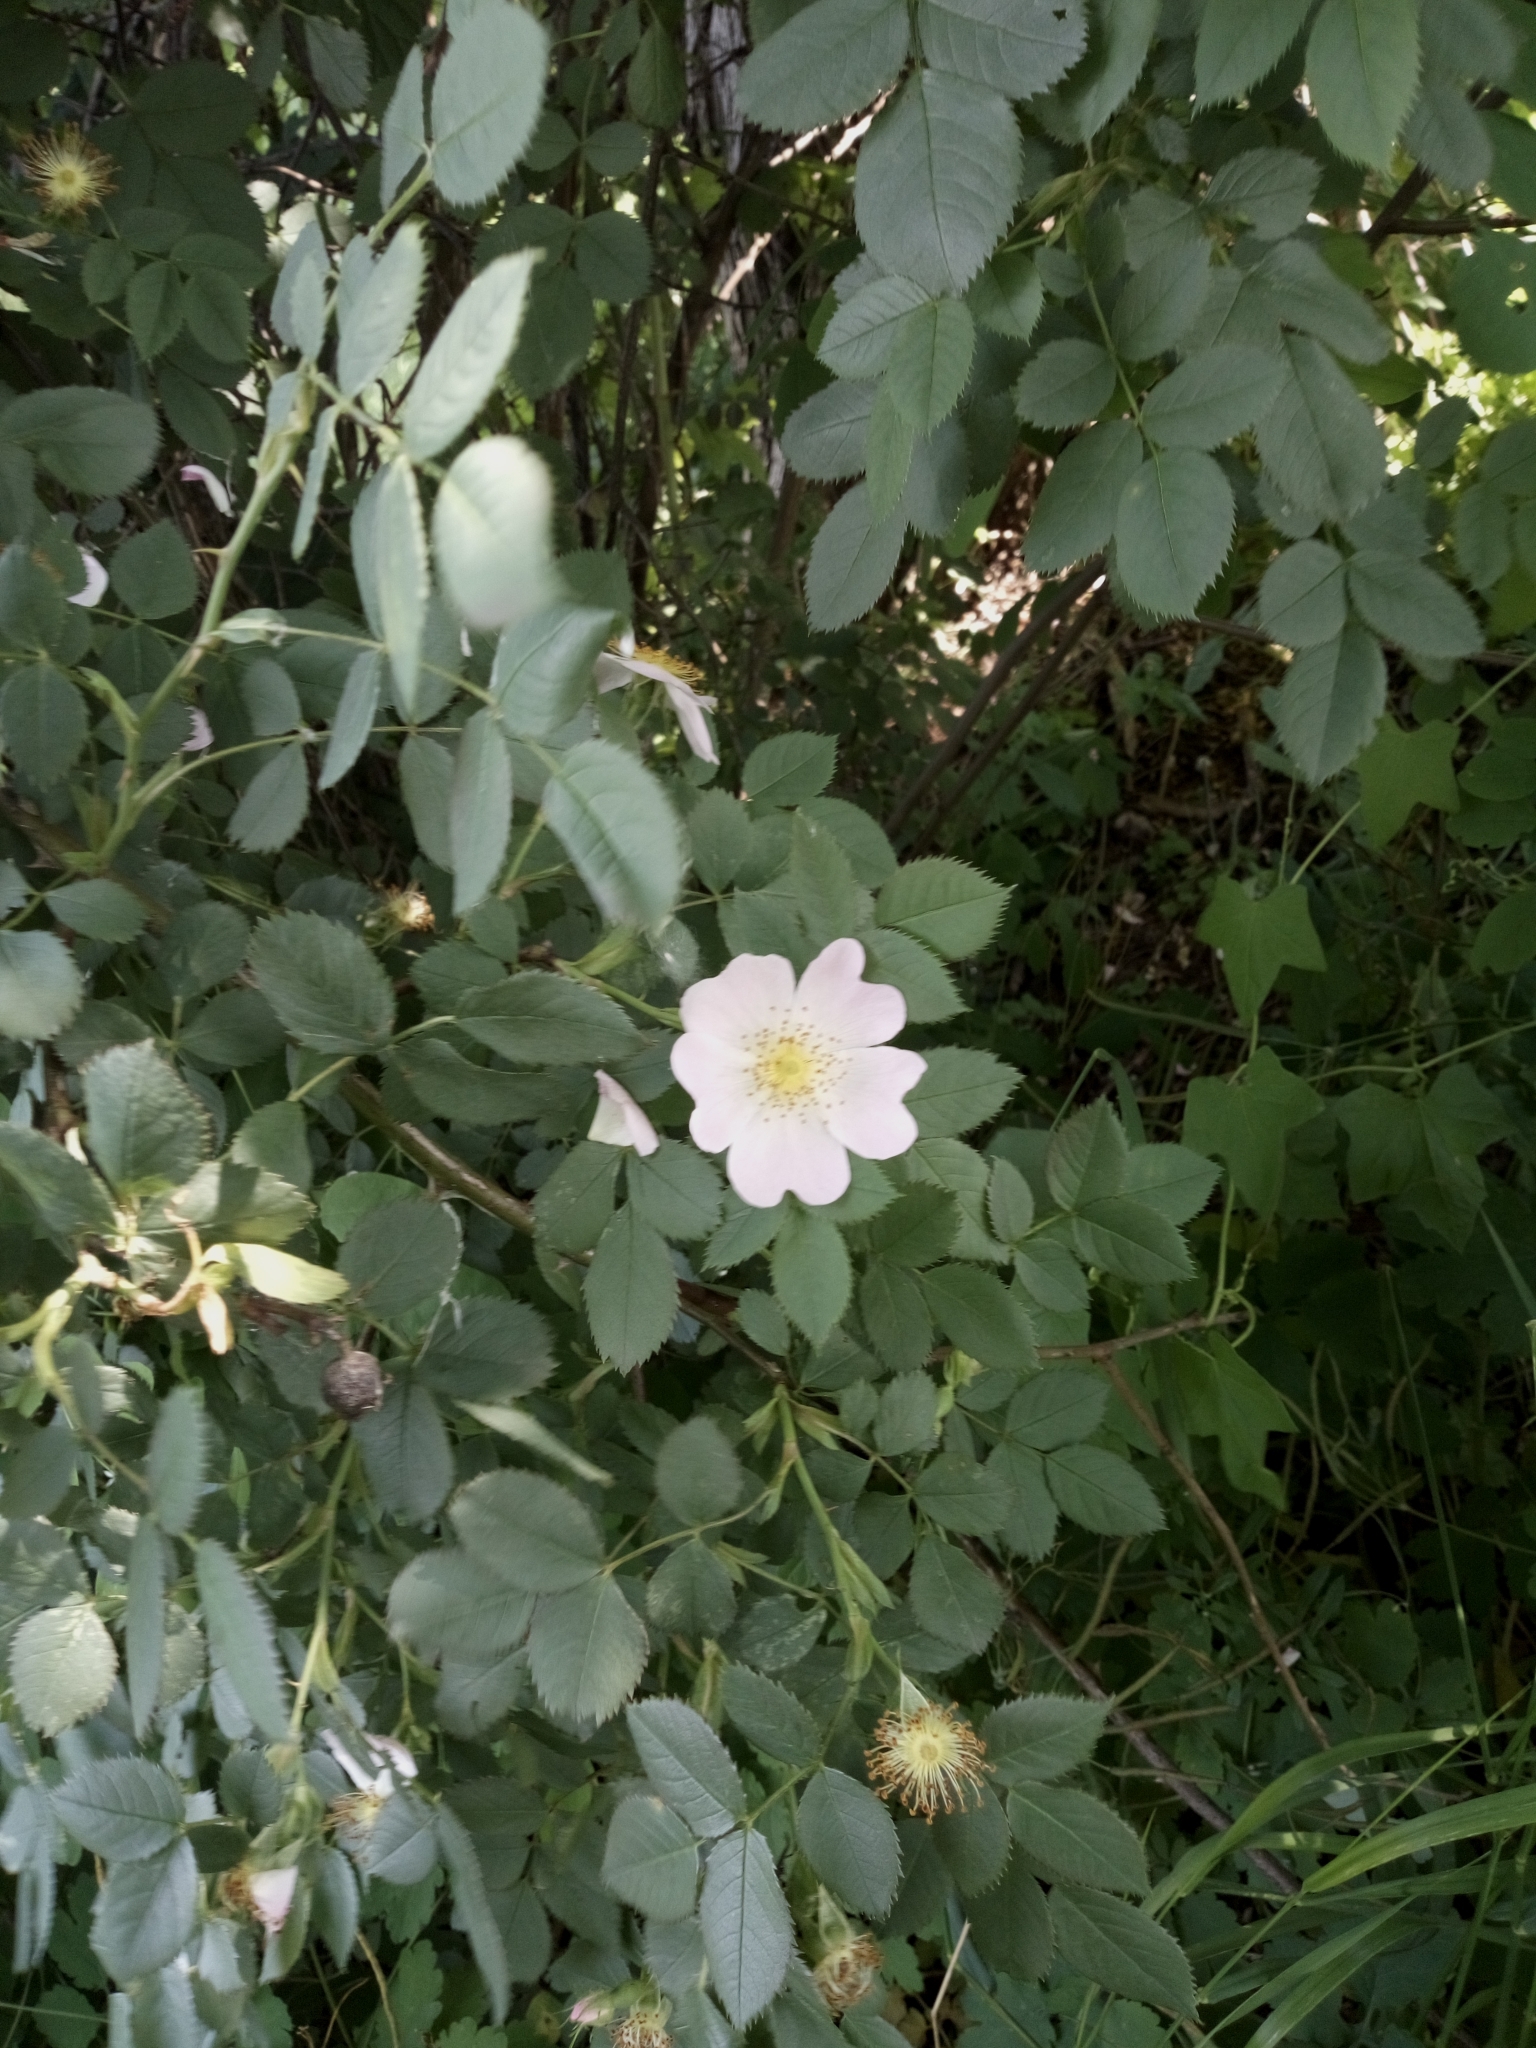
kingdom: Plantae
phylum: Tracheophyta
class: Magnoliopsida
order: Rosales
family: Rosaceae
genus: Rosa
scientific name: Rosa canina
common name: Dog rose
